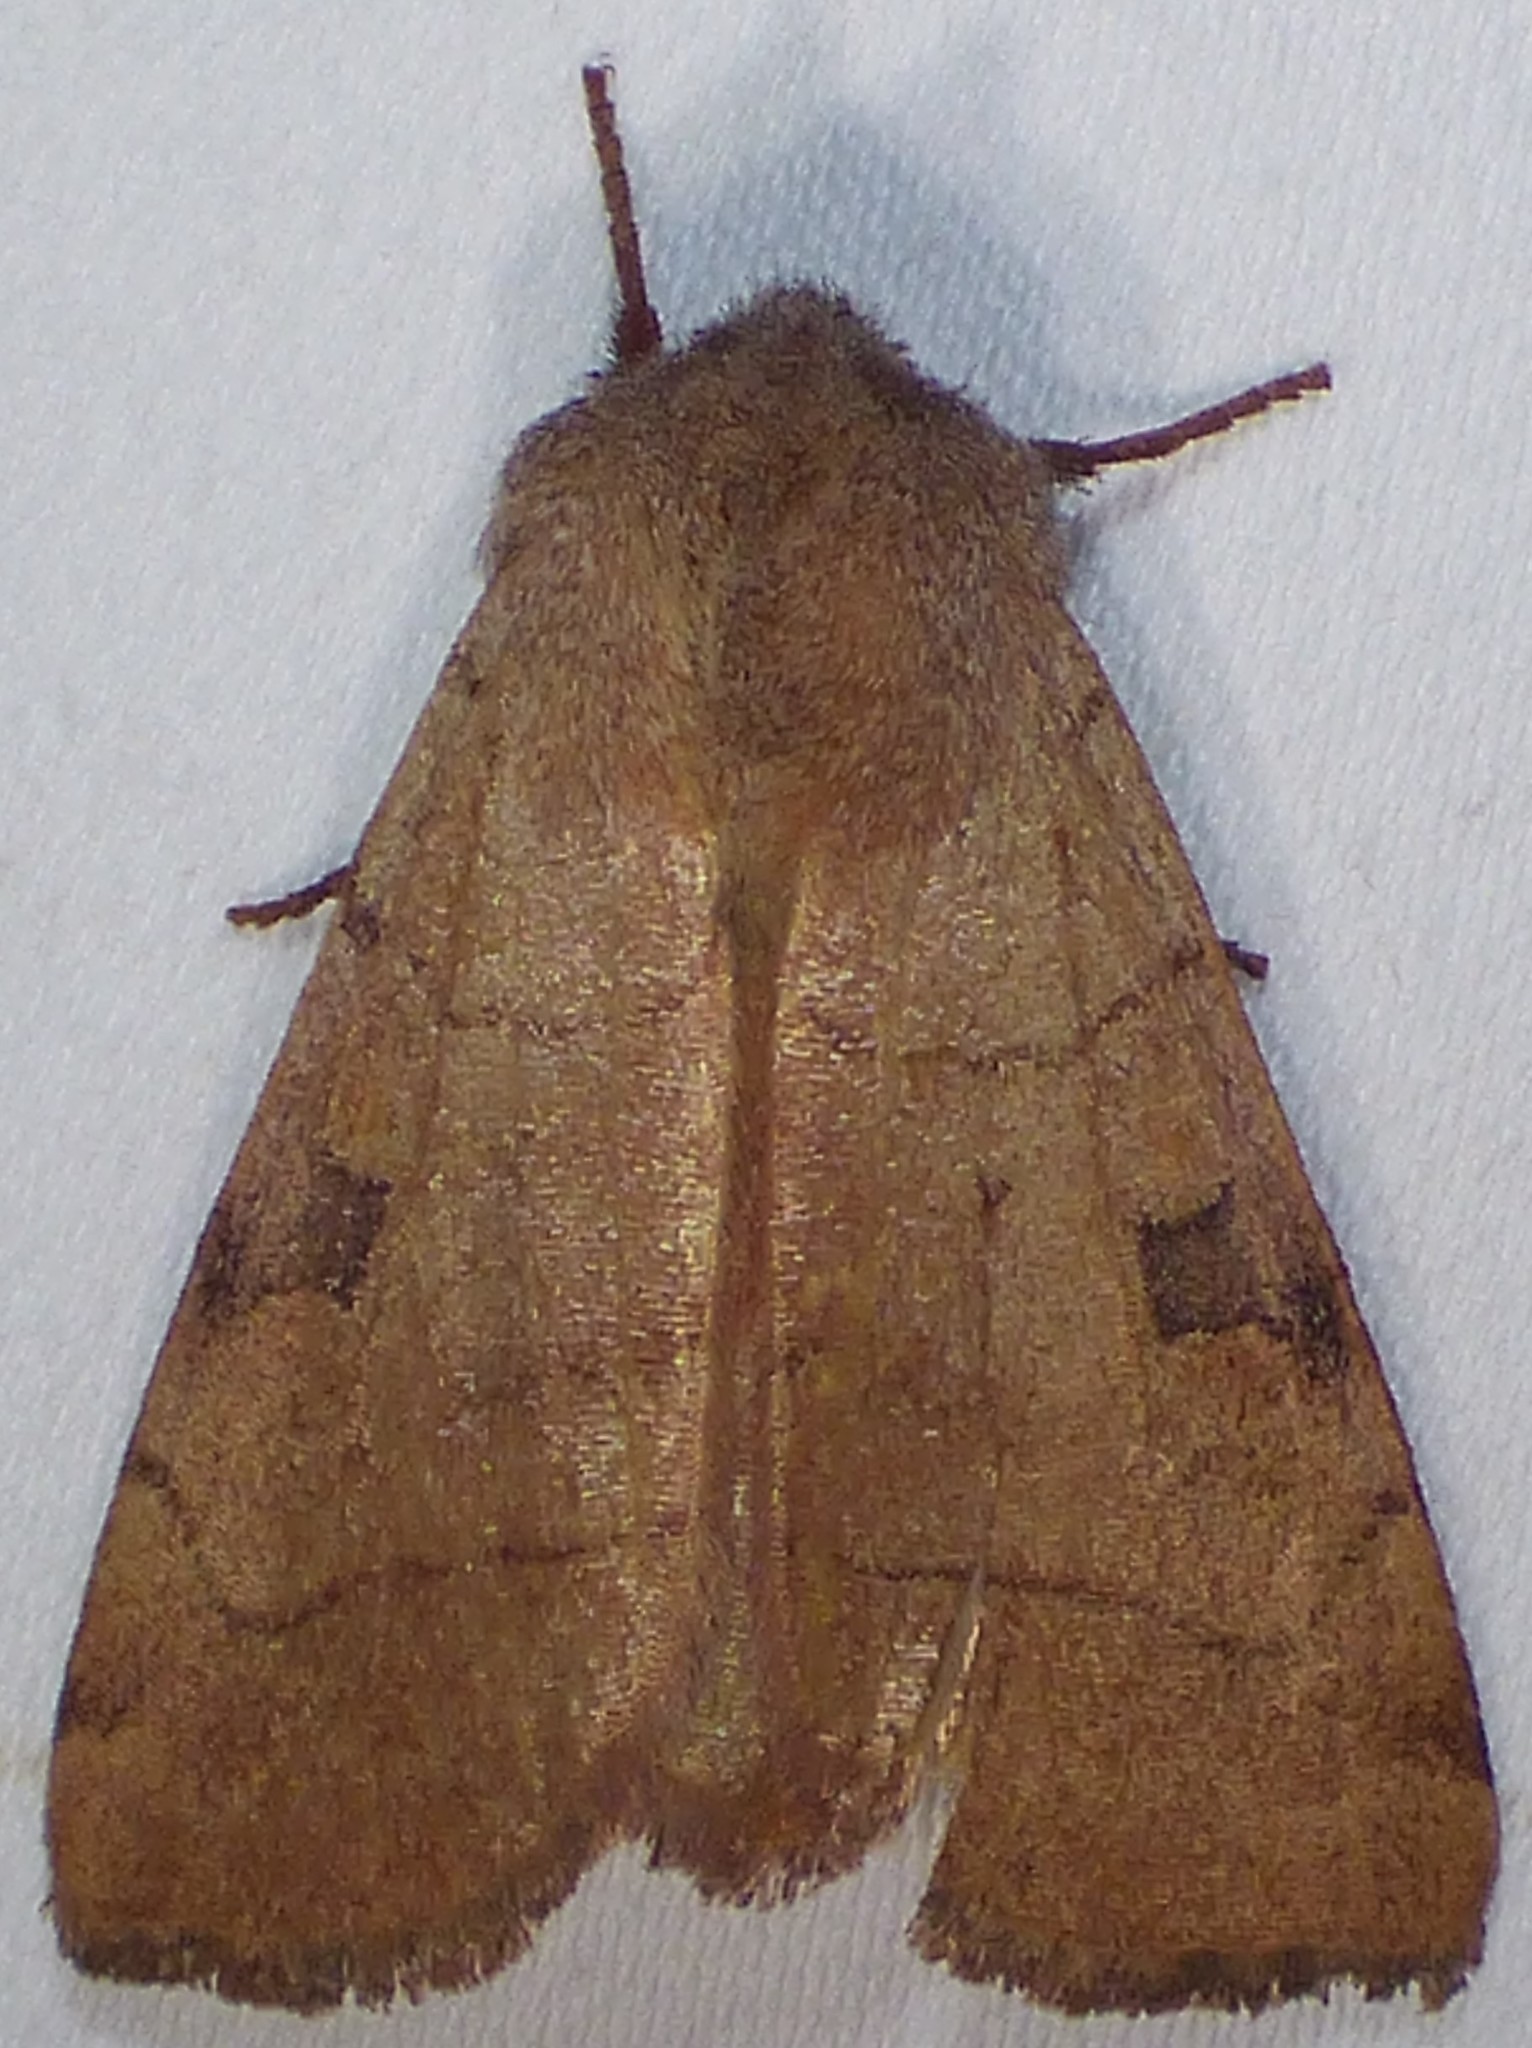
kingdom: Animalia
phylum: Arthropoda
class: Insecta
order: Lepidoptera
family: Noctuidae
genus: Choephora
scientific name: Choephora fungorum
